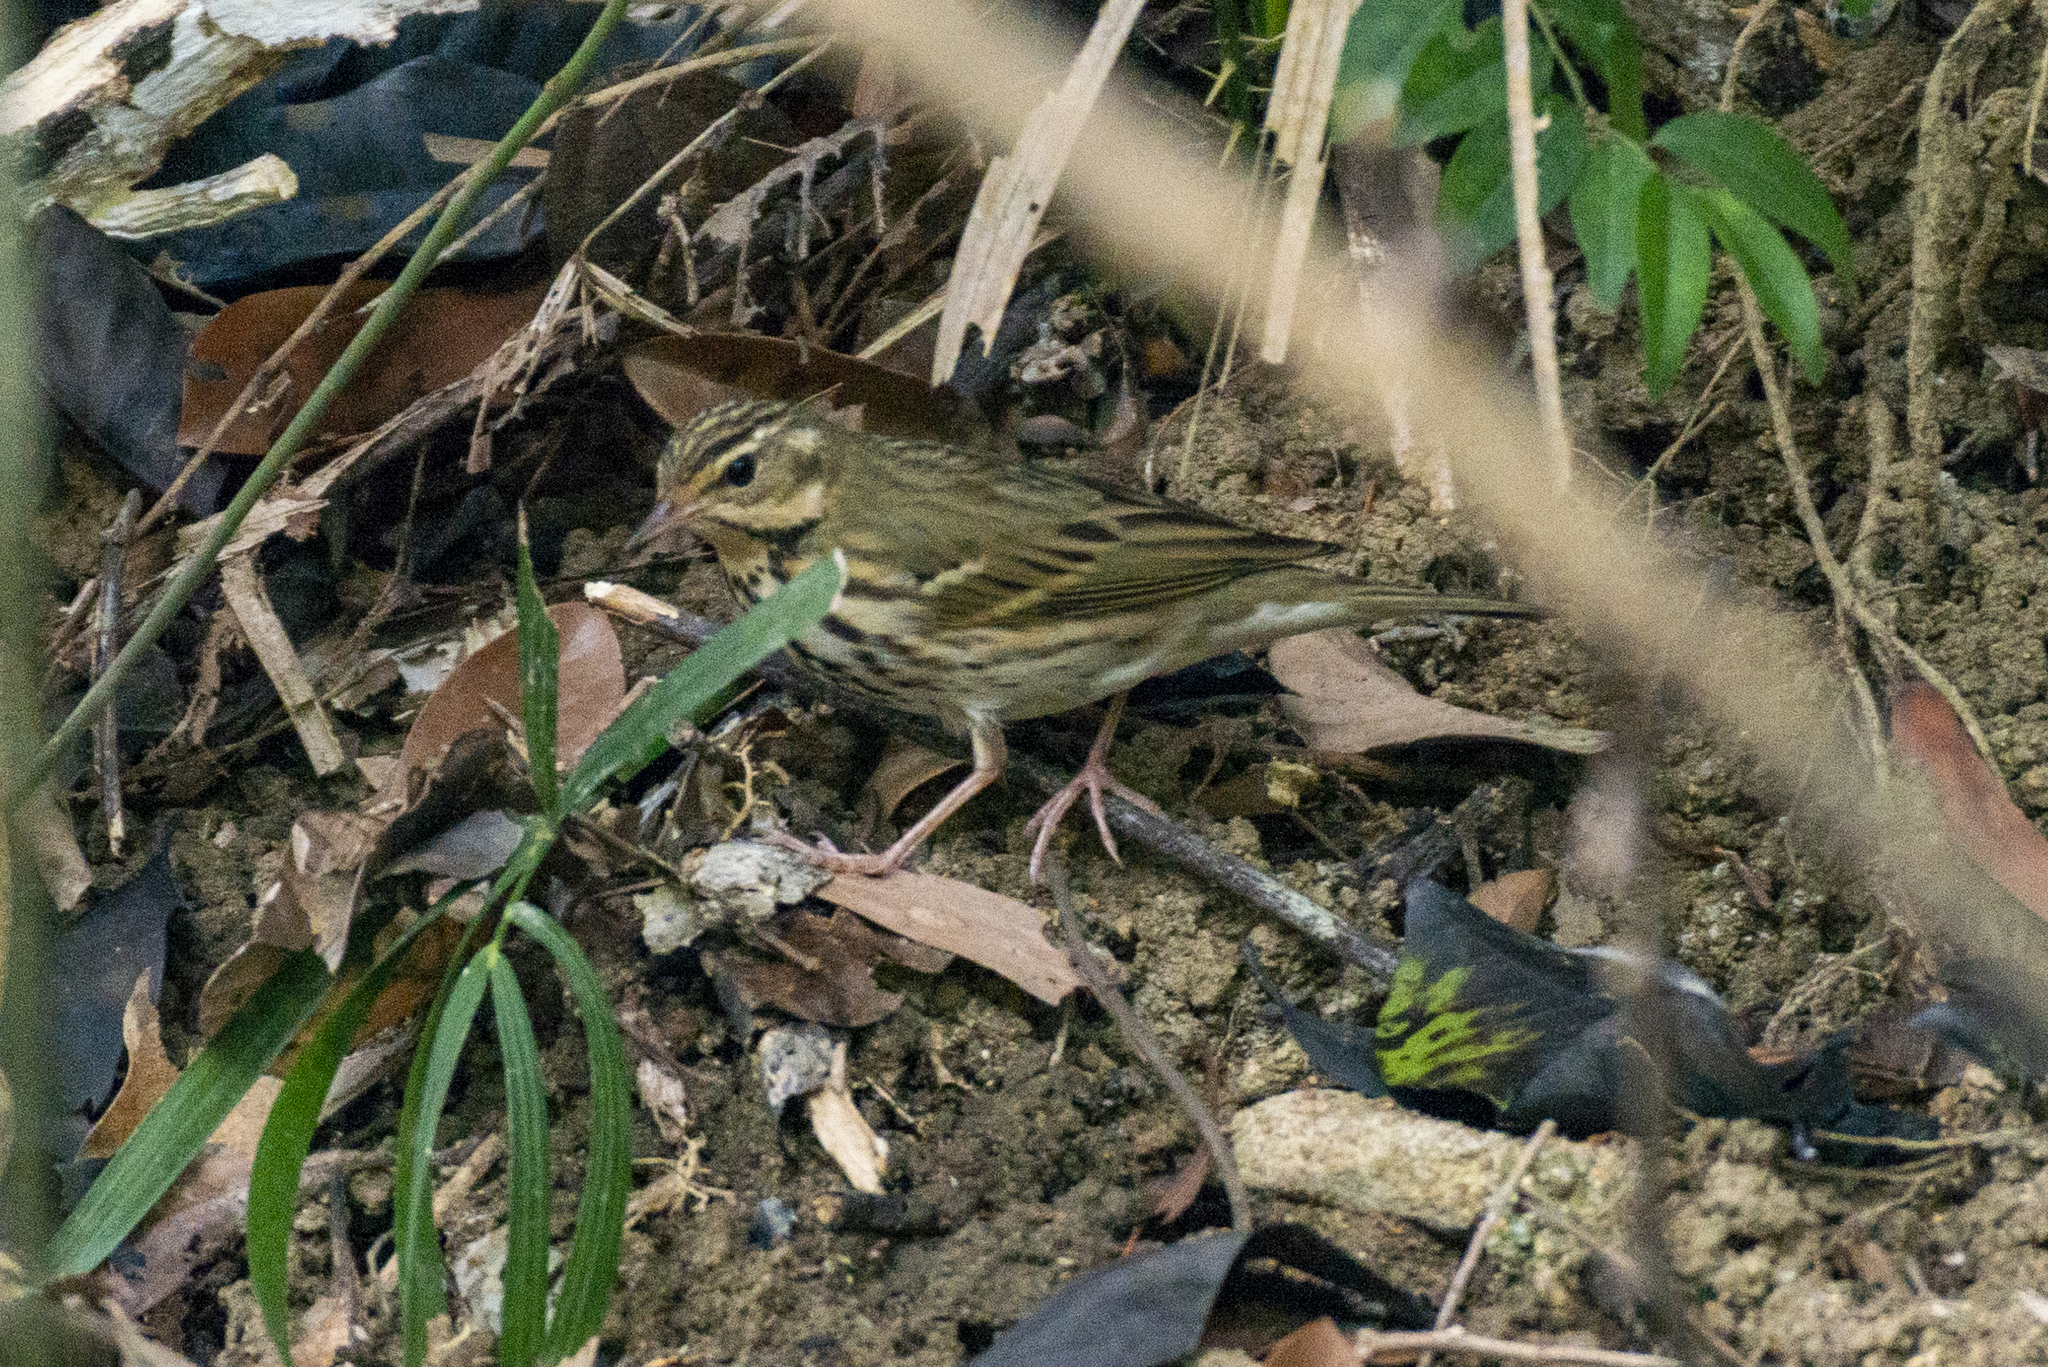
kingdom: Animalia
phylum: Chordata
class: Aves
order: Passeriformes
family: Motacillidae
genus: Anthus
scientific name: Anthus hodgsoni
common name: Olive-backed pipit
